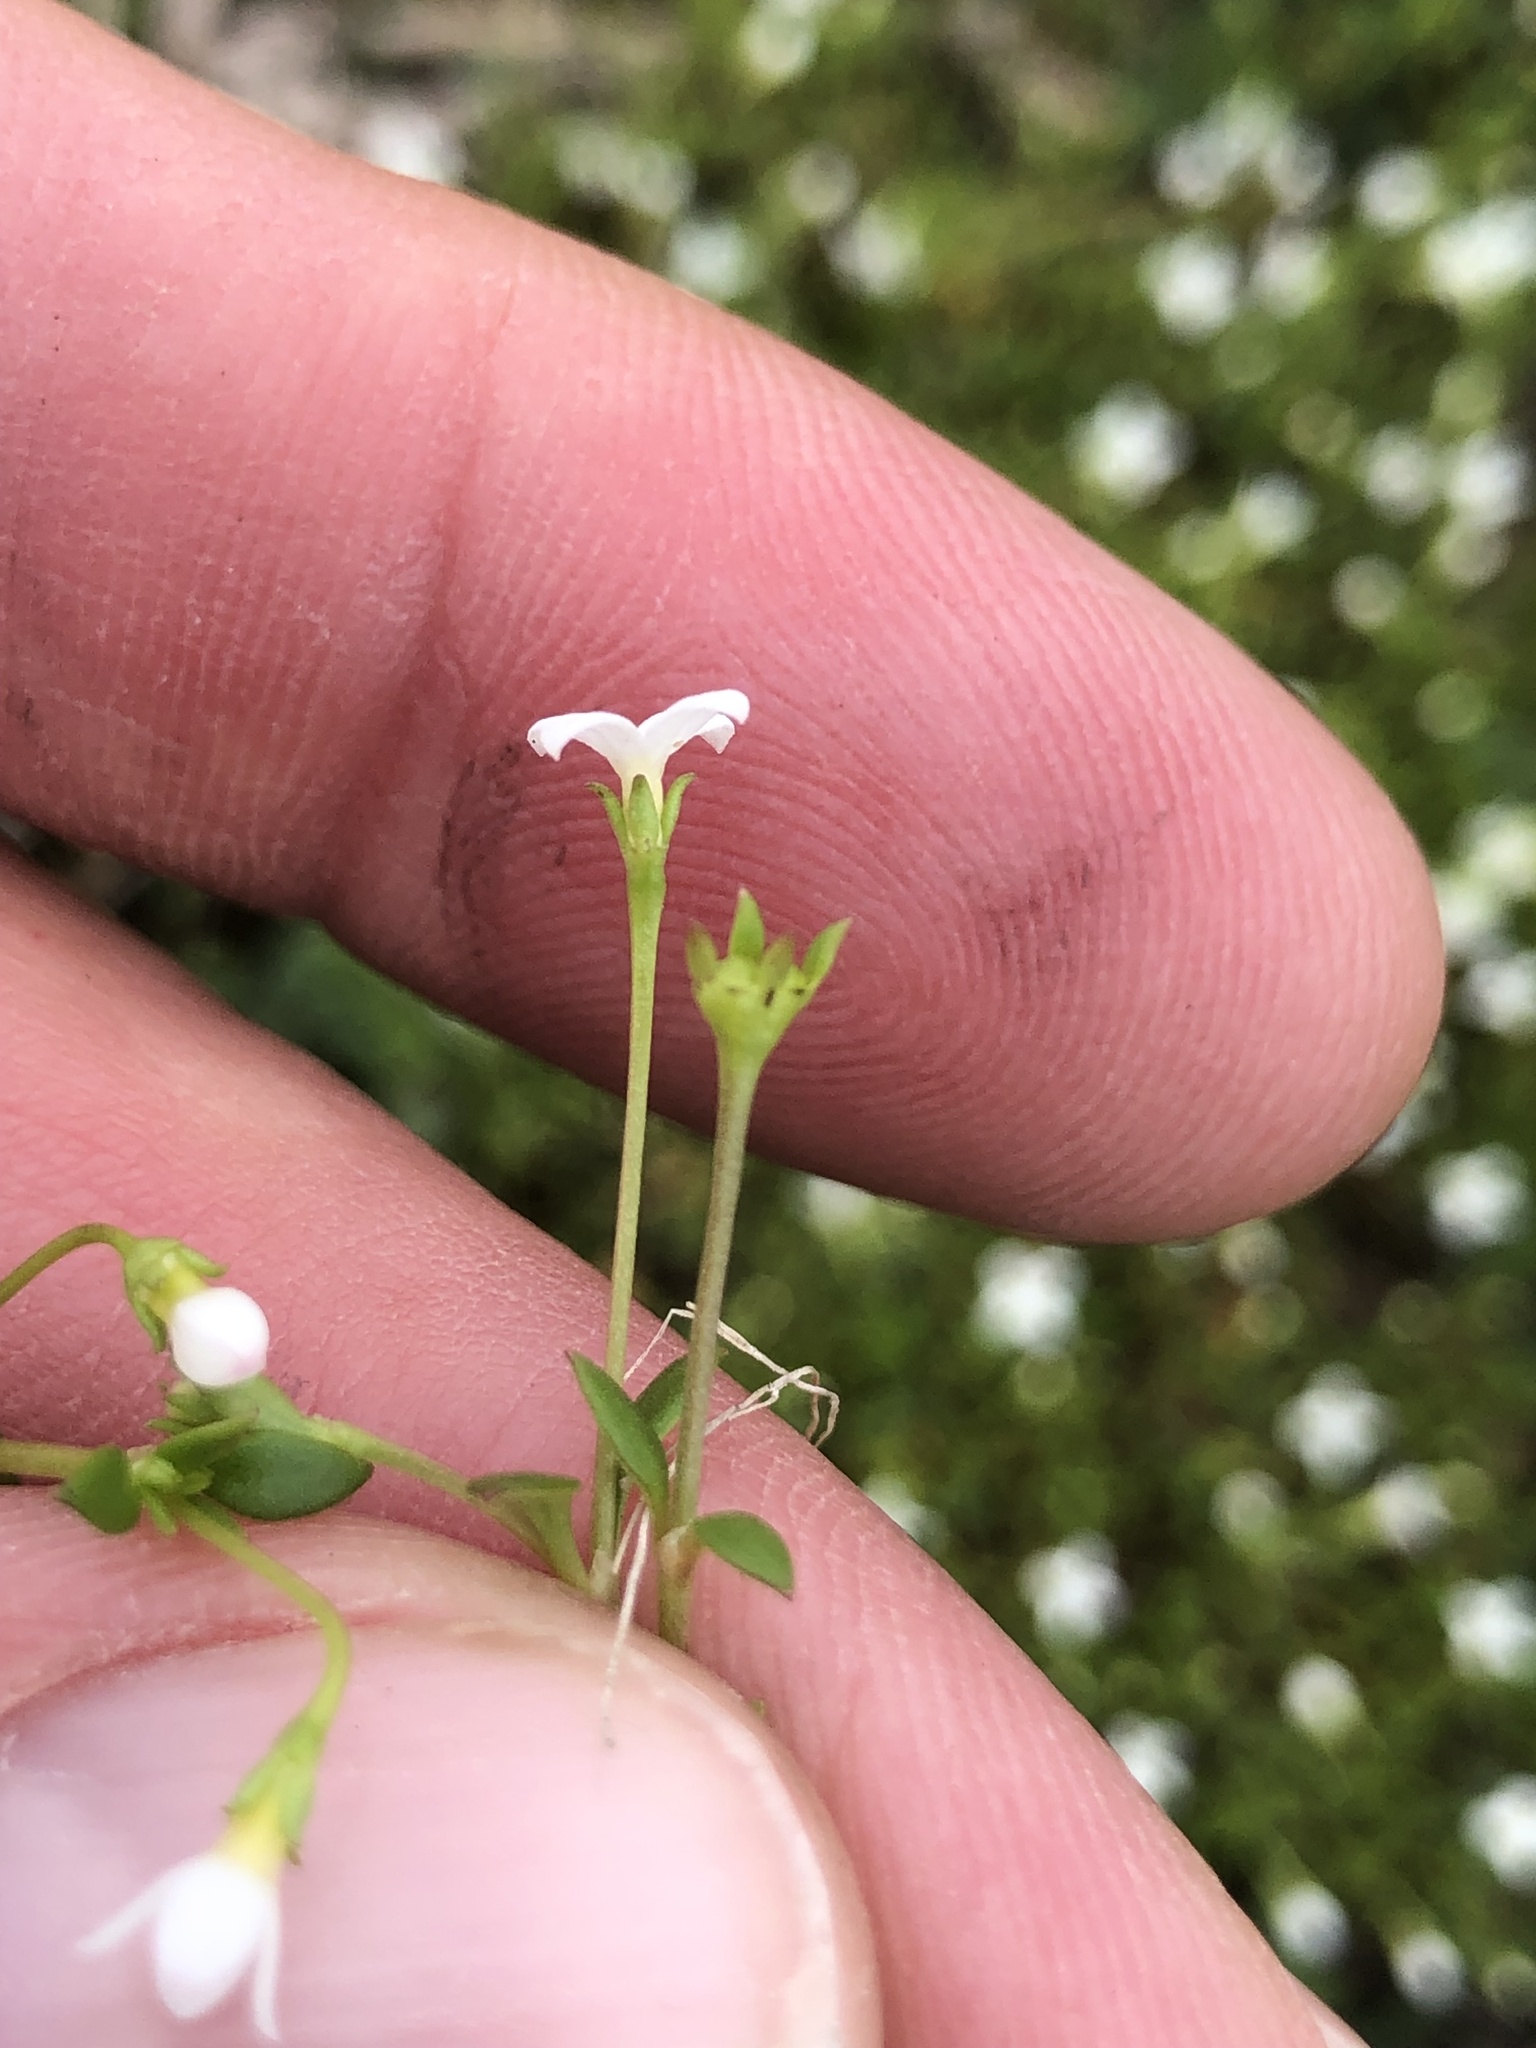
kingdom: Plantae
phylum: Tracheophyta
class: Magnoliopsida
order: Gentianales
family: Rubiaceae
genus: Houstonia
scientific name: Houstonia micrantha
